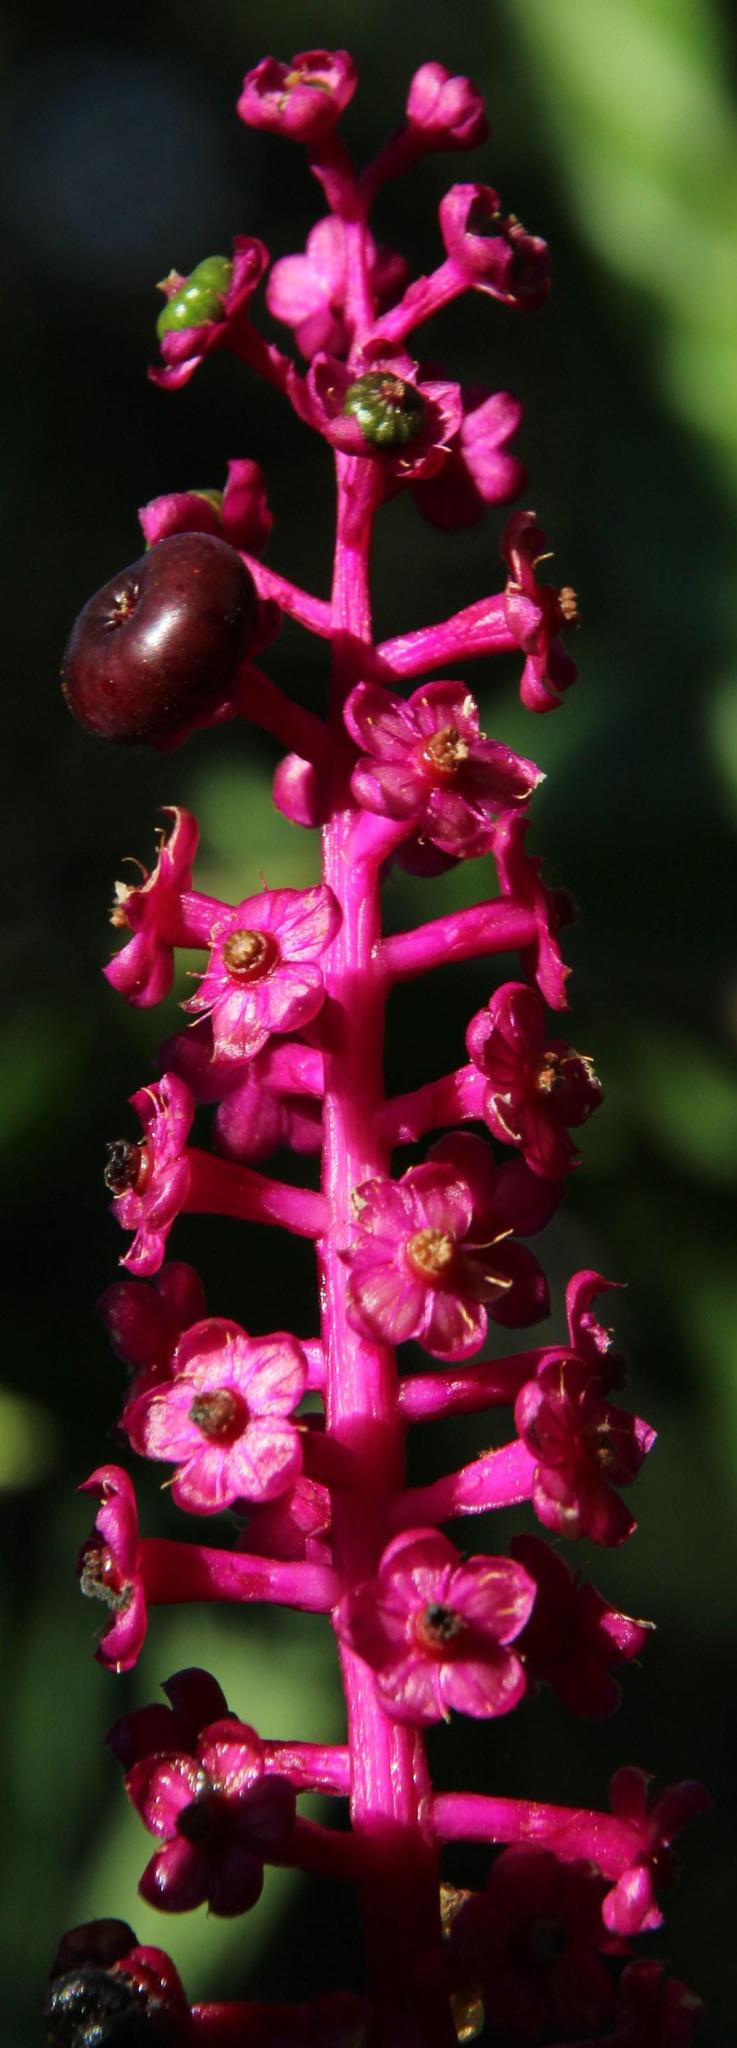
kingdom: Plantae
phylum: Tracheophyta
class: Magnoliopsida
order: Caryophyllales
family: Phytolaccaceae
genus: Phytolacca
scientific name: Phytolacca americana
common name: American pokeweed
